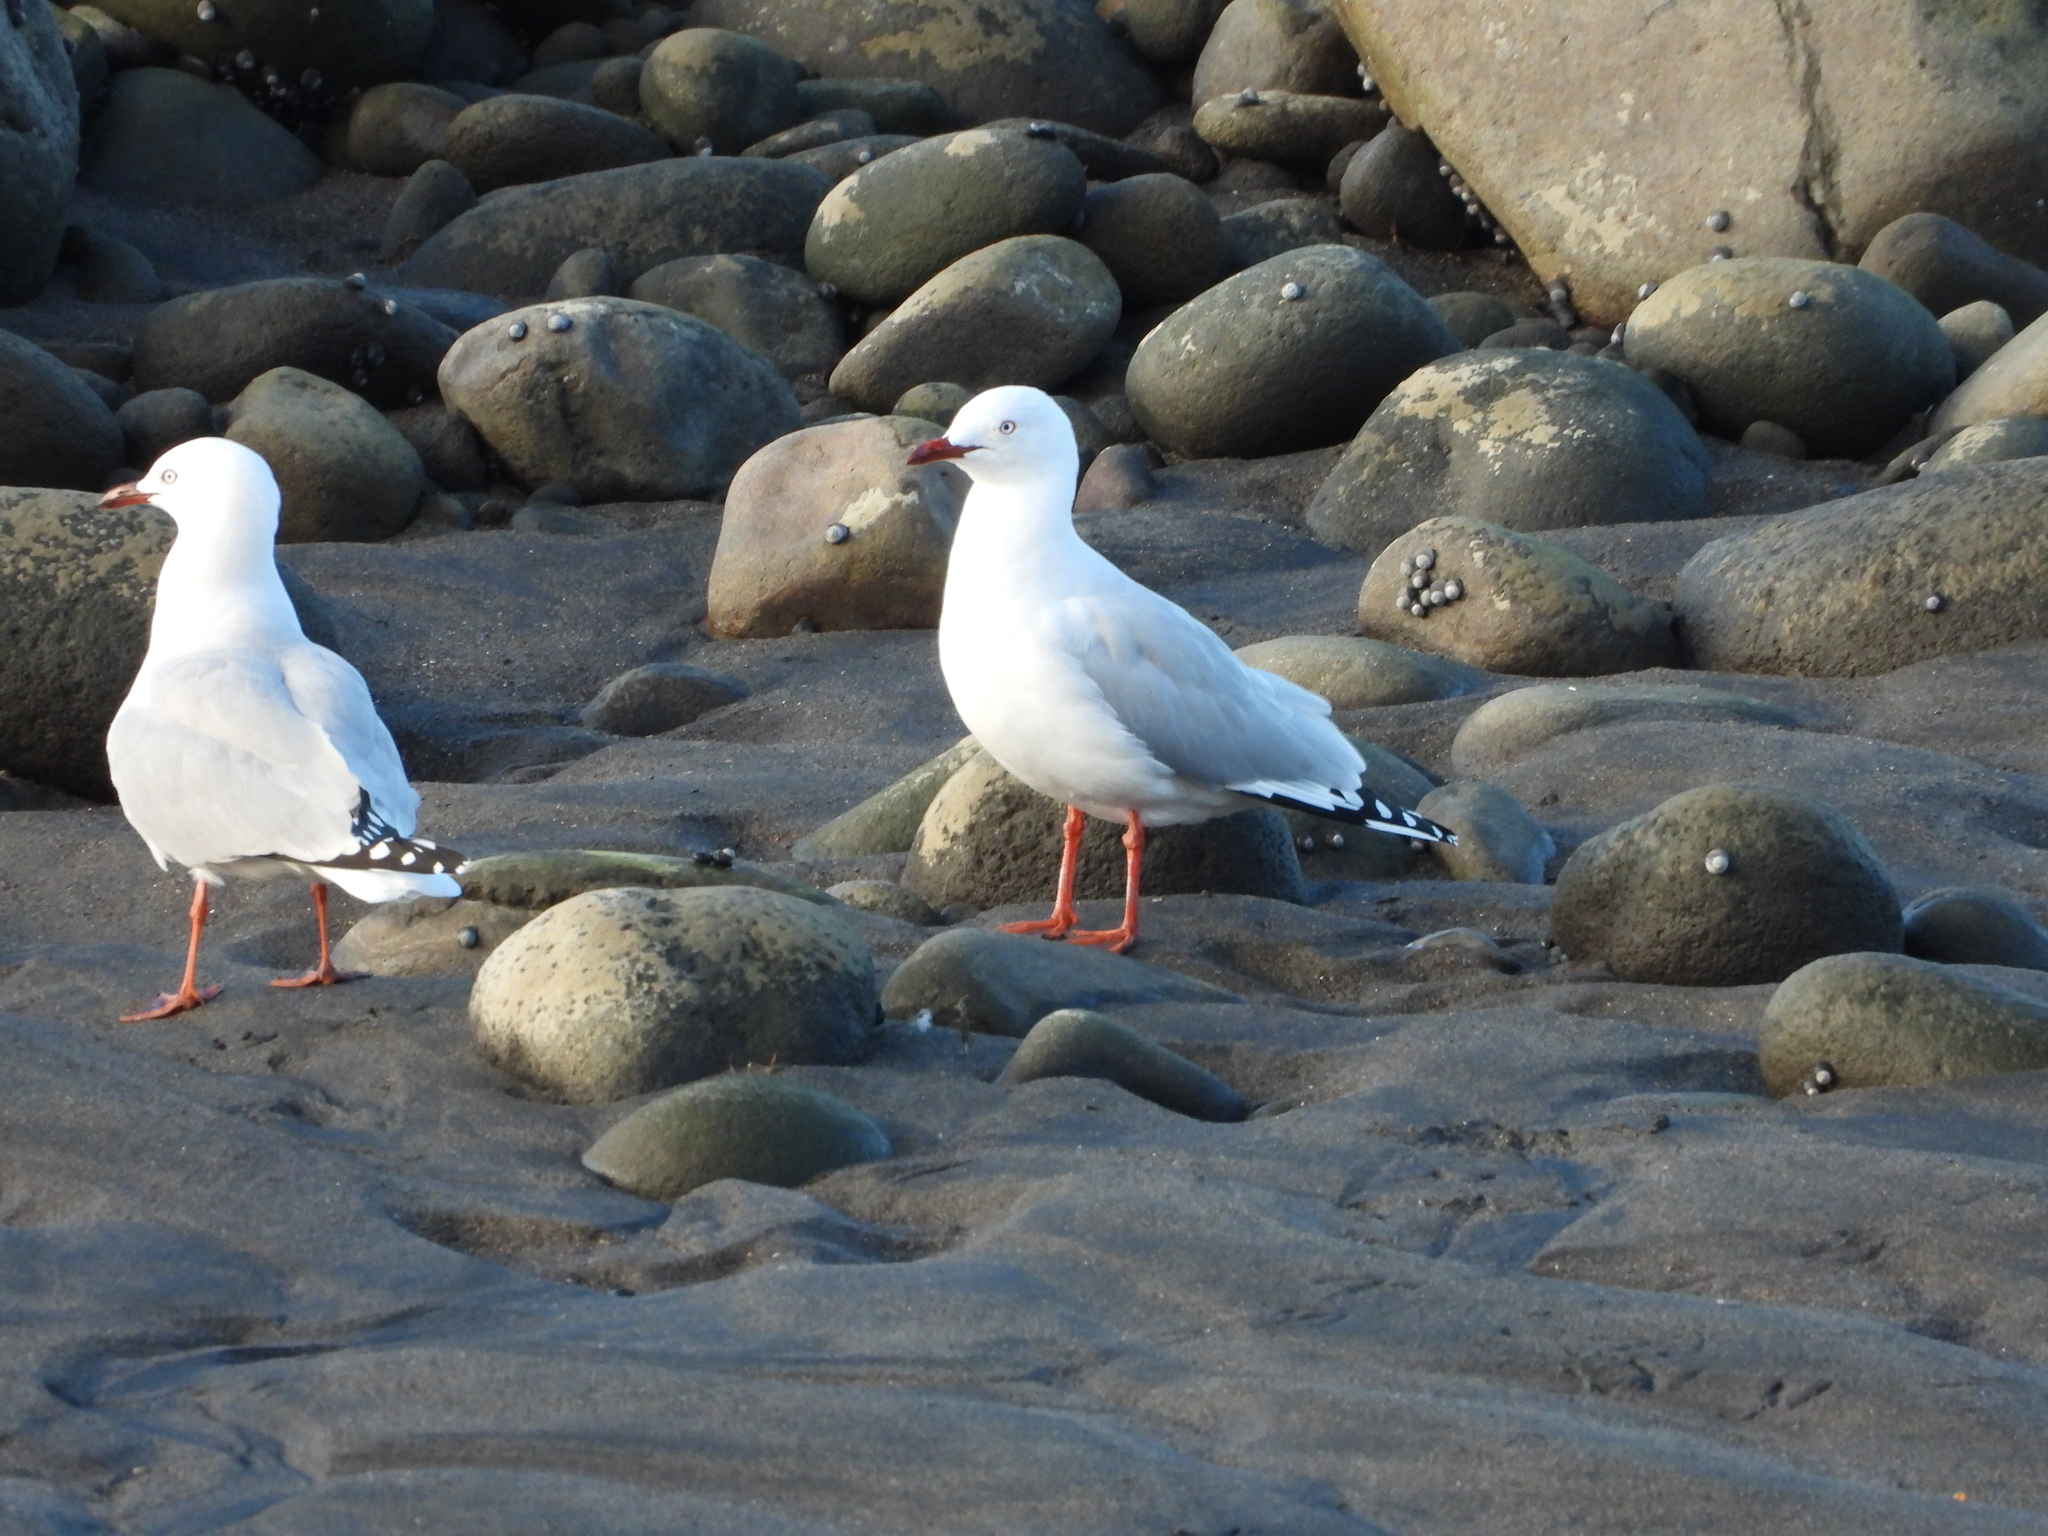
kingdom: Animalia
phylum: Chordata
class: Aves
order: Charadriiformes
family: Laridae
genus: Chroicocephalus
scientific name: Chroicocephalus novaehollandiae
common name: Silver gull
